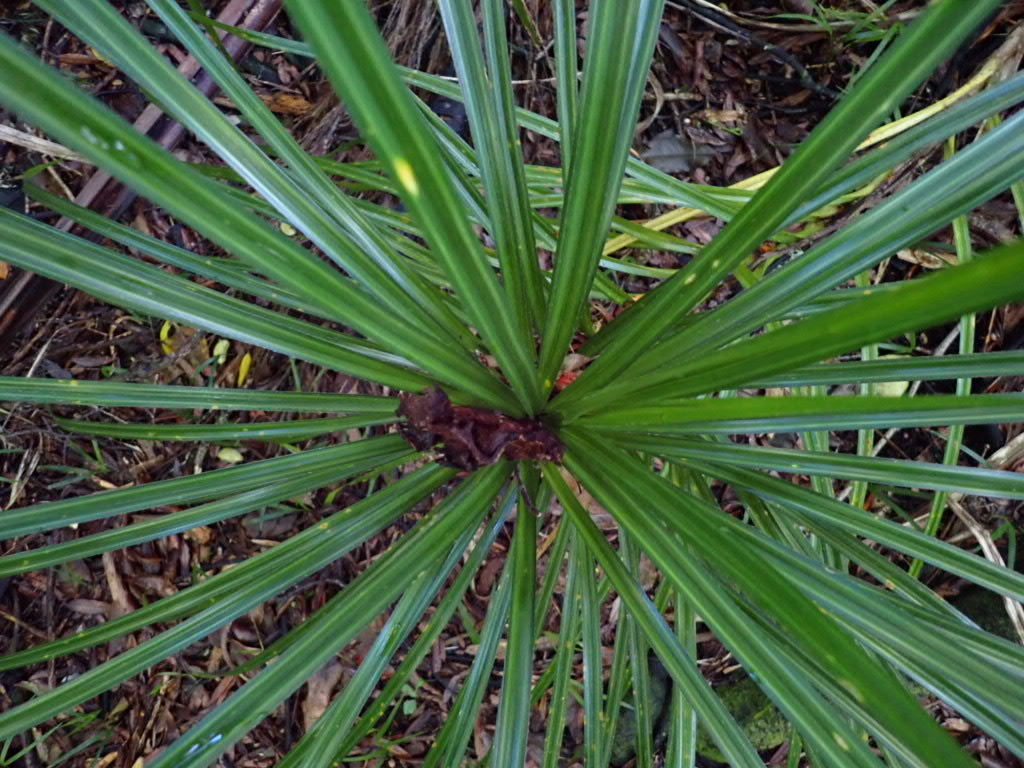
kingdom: Plantae
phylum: Tracheophyta
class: Liliopsida
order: Pandanales
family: Pandanaceae
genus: Freycinetia
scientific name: Freycinetia banksii
